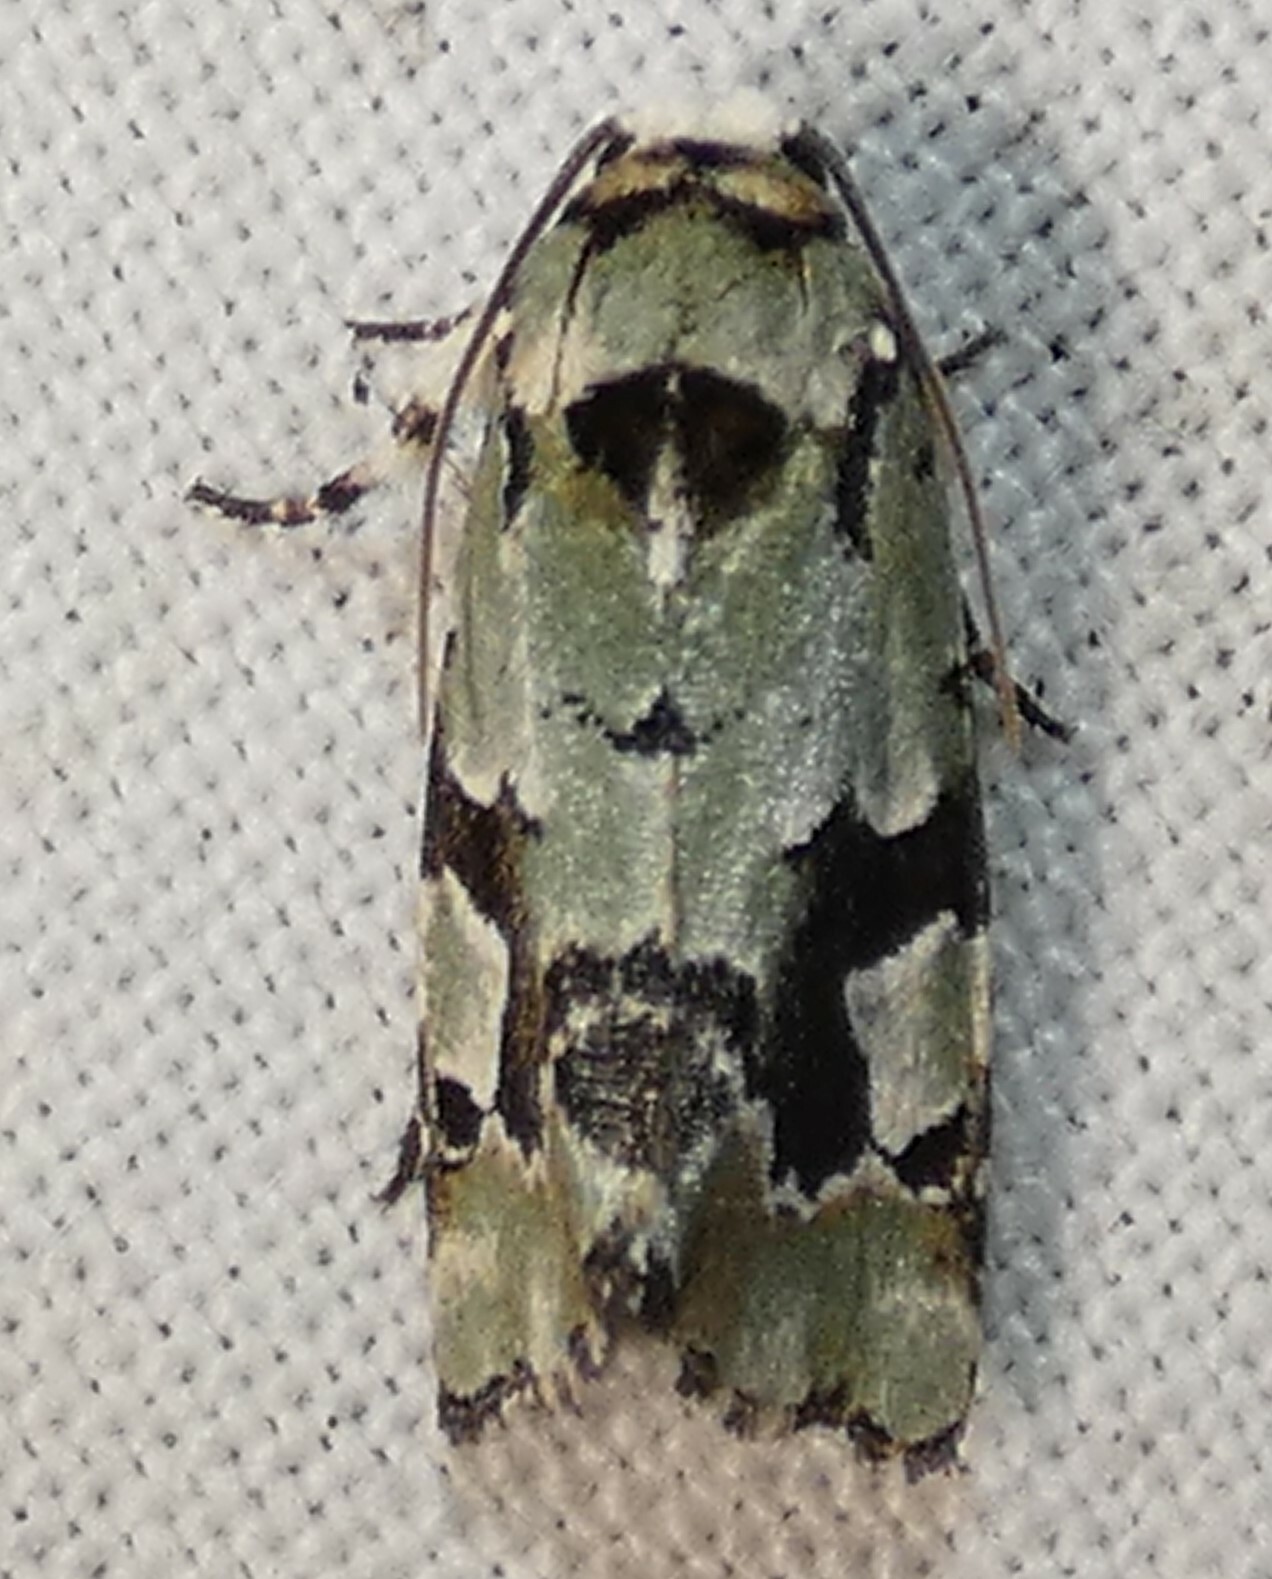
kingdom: Animalia
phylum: Arthropoda
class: Insecta
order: Lepidoptera
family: Noctuidae
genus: Emarginea
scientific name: Emarginea percara
